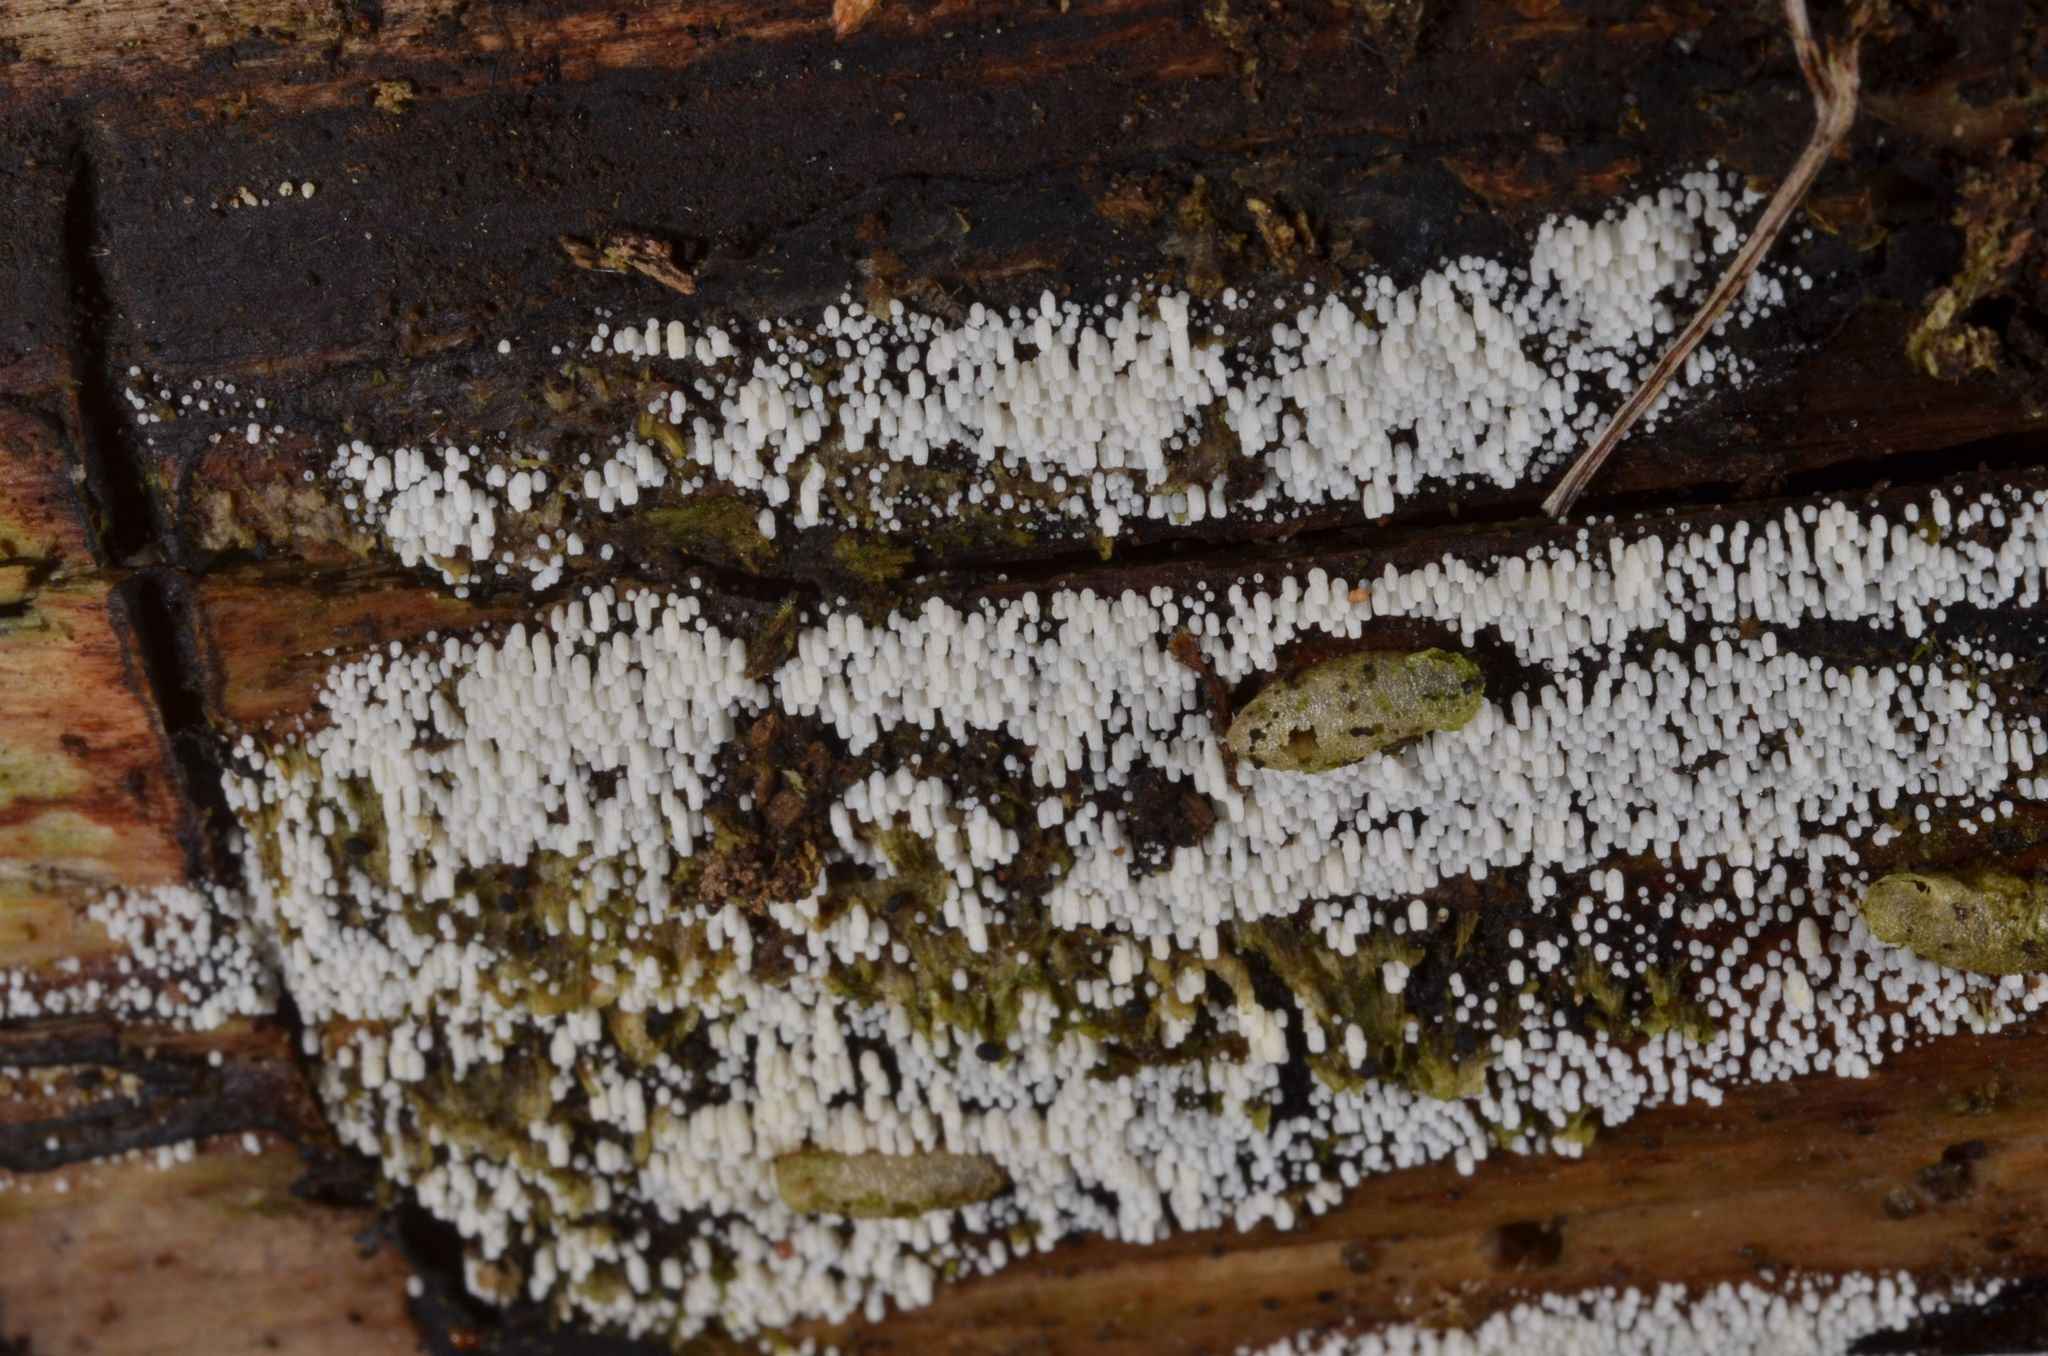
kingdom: Fungi
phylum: Basidiomycota
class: Agaricomycetes
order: Agaricales
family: Marasmiaceae
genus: Henningsomyces
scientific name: Henningsomyces candidus
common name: White tubelet
